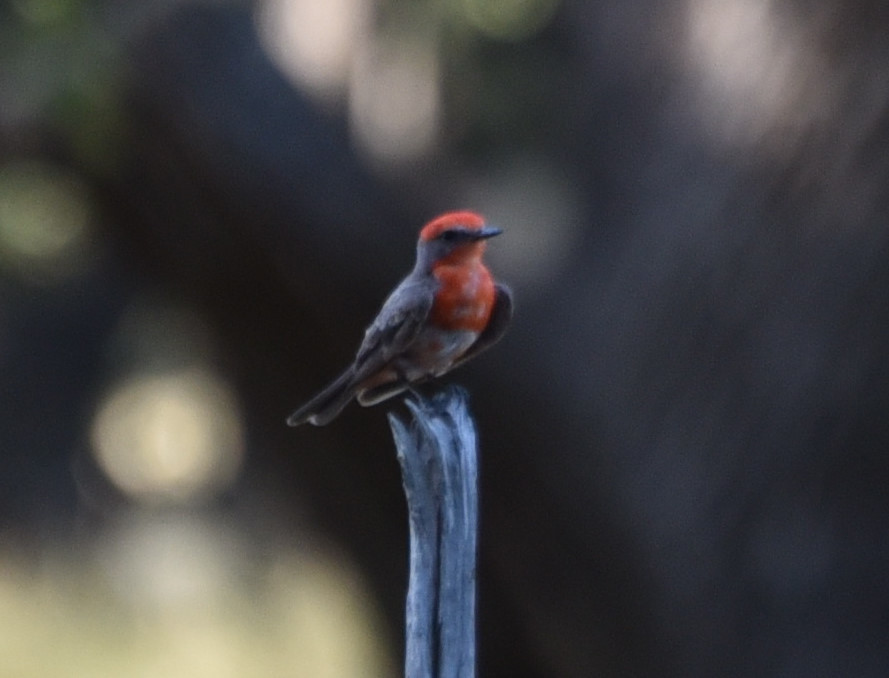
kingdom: Animalia
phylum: Chordata
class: Aves
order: Passeriformes
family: Tyrannidae
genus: Pyrocephalus
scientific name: Pyrocephalus rubinus
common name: Vermilion flycatcher
